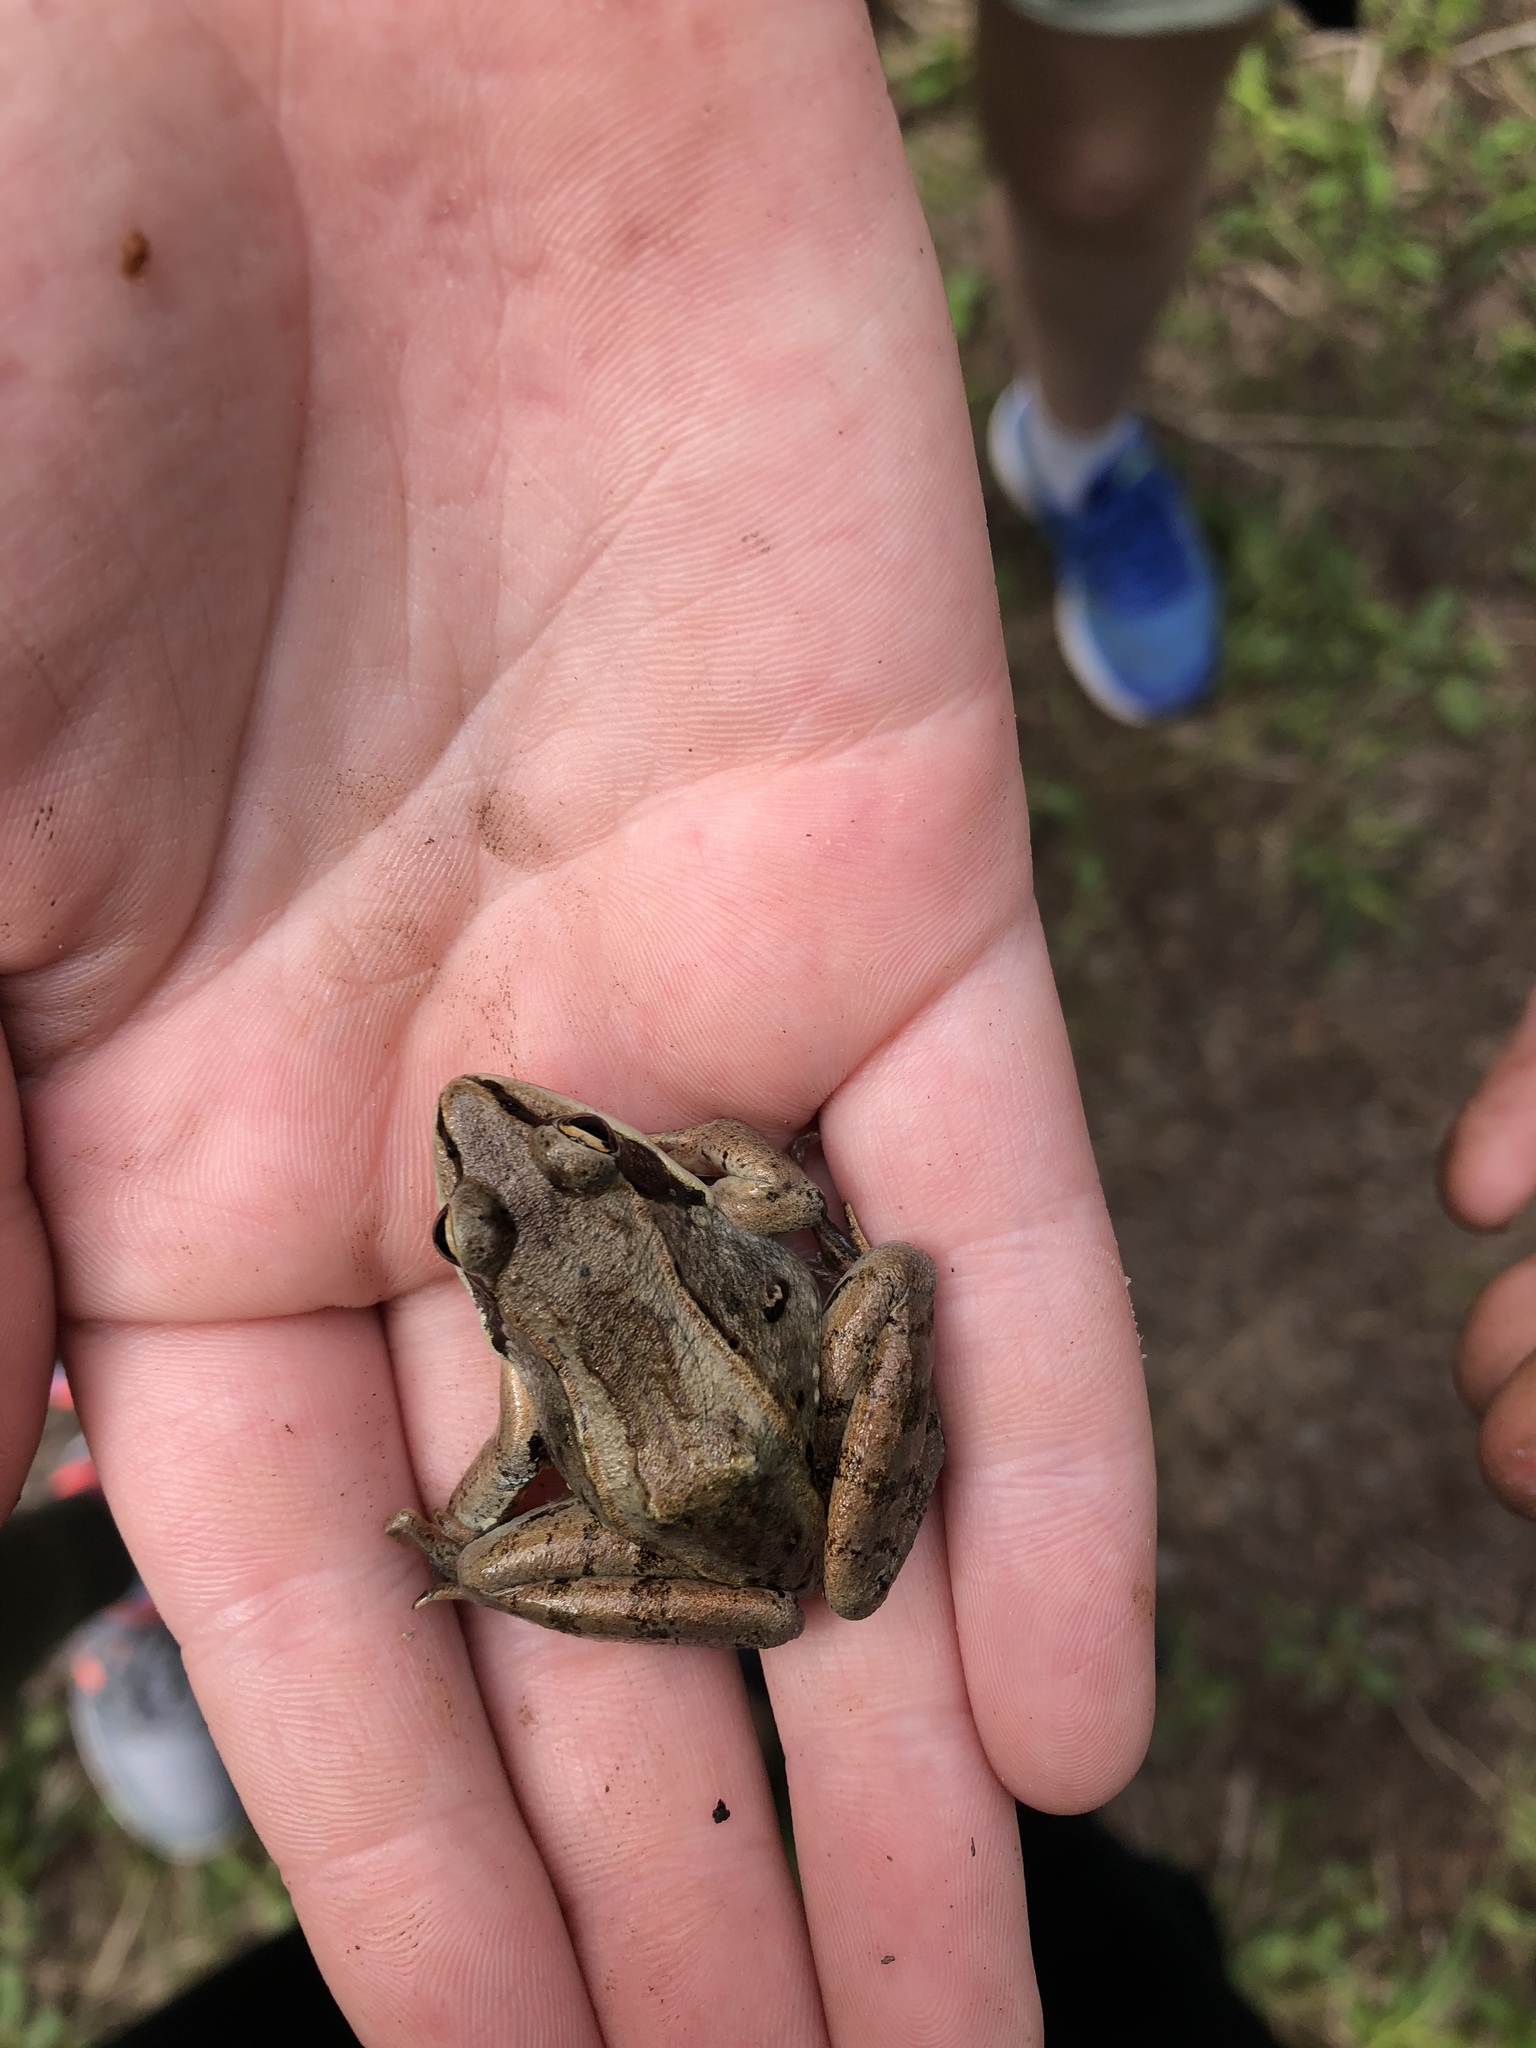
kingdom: Animalia
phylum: Chordata
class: Amphibia
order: Anura
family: Ranidae
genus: Lithobates
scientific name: Lithobates sylvaticus
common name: Wood frog
